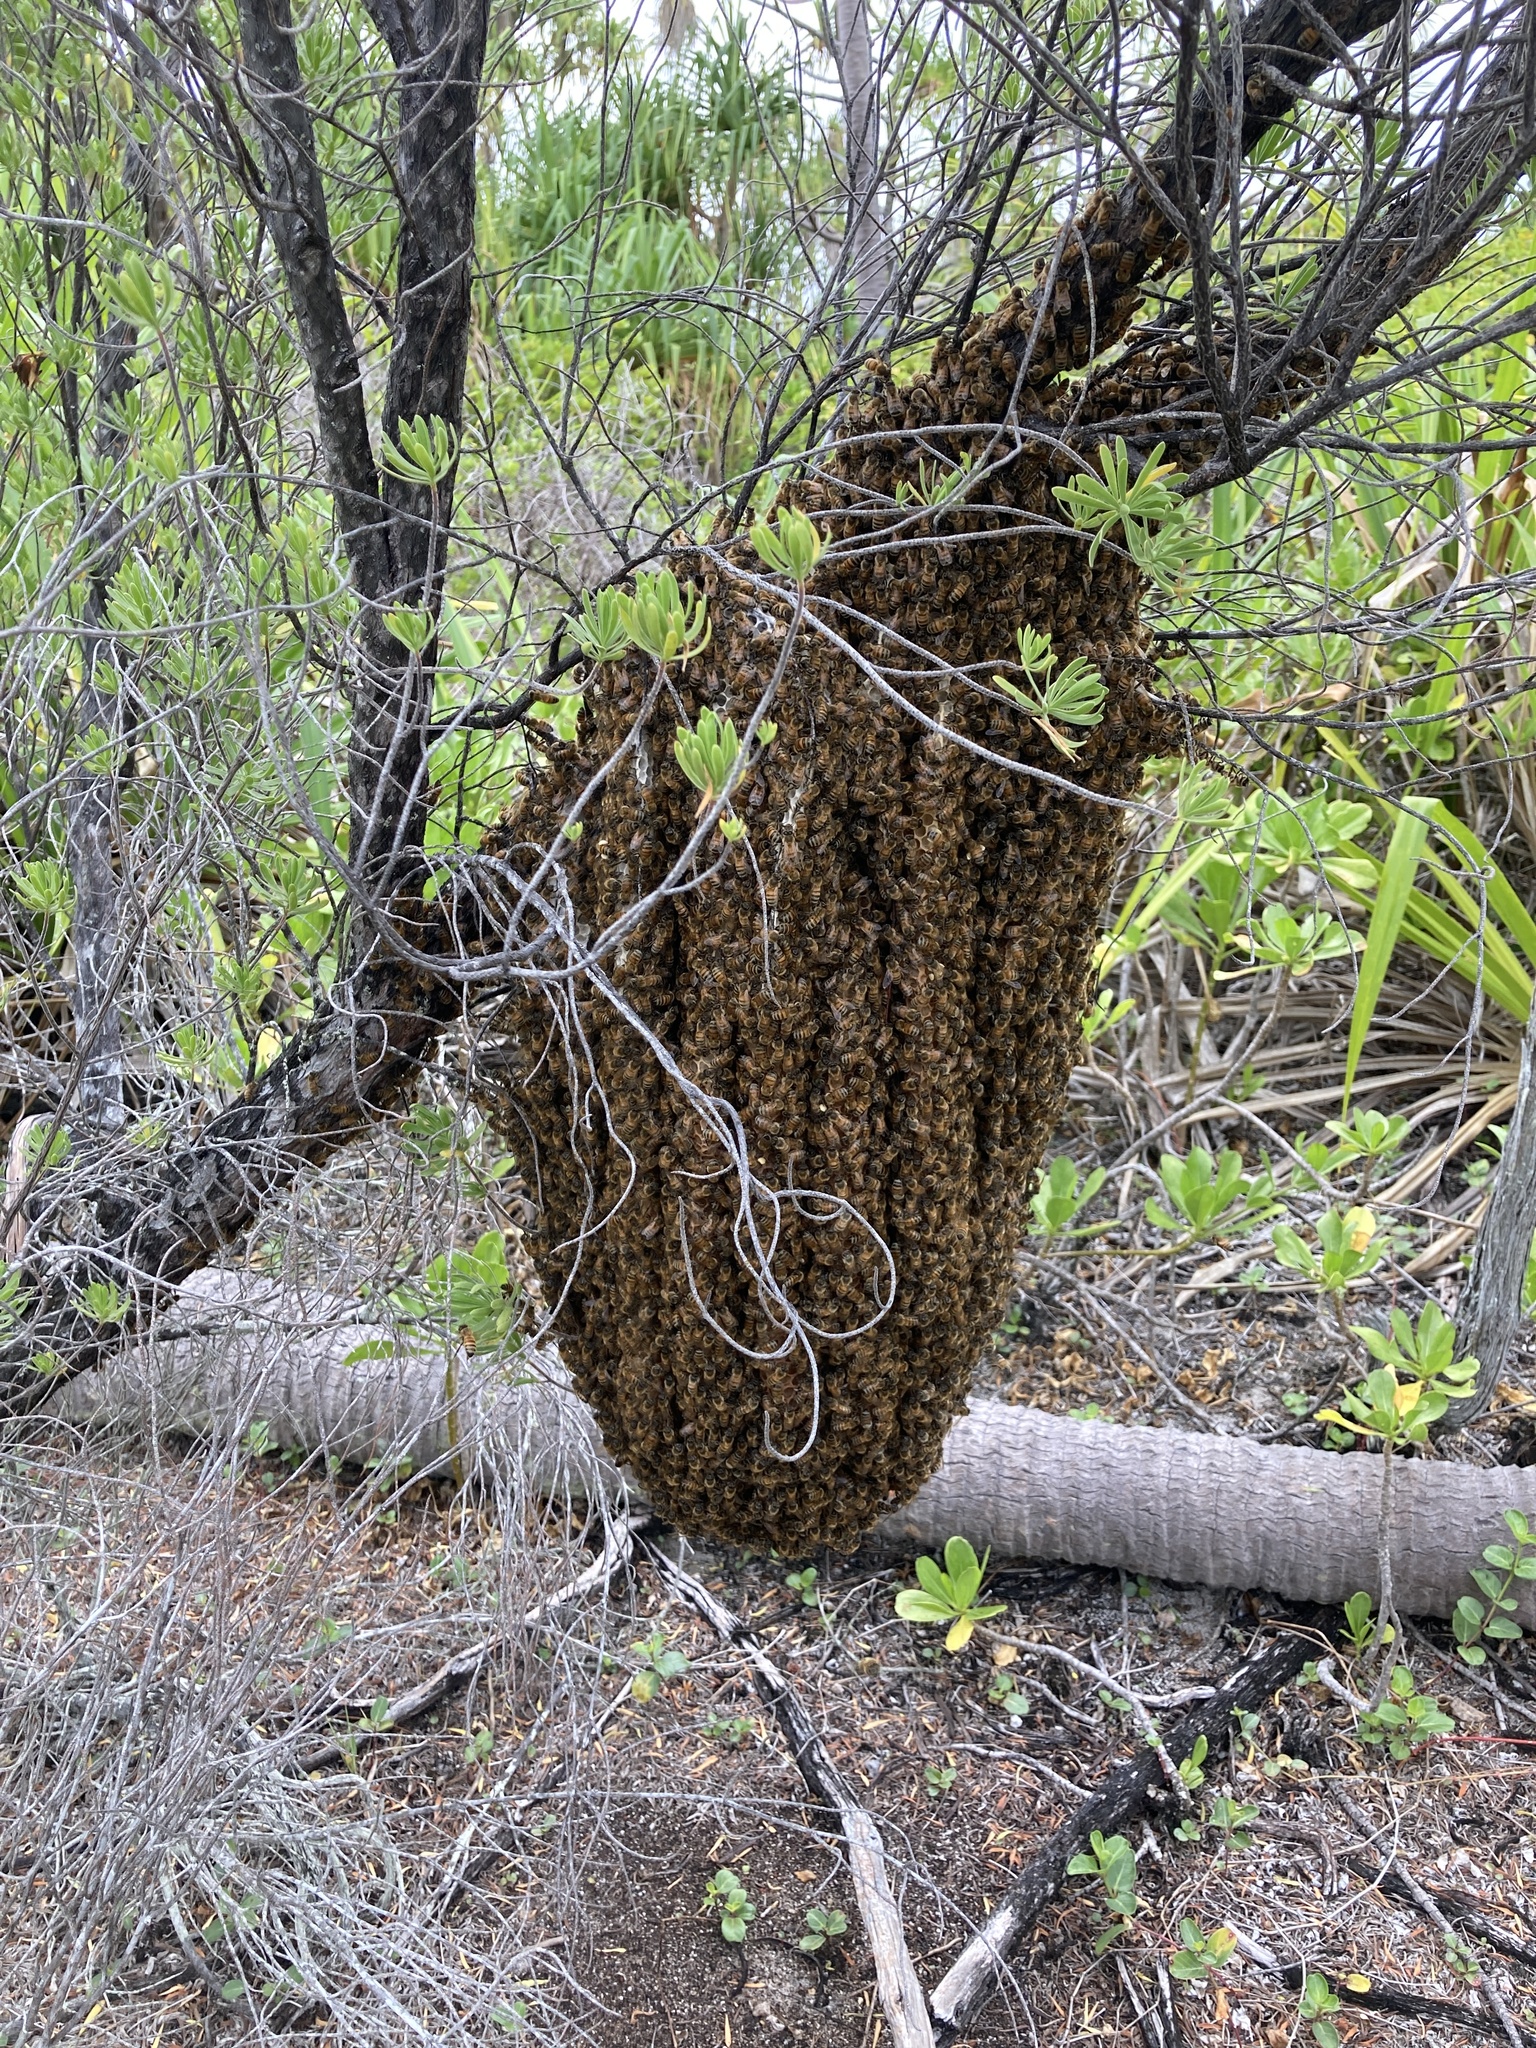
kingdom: Animalia
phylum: Arthropoda
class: Insecta
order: Hymenoptera
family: Apidae
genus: Apis
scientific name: Apis mellifera
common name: Honey bee
